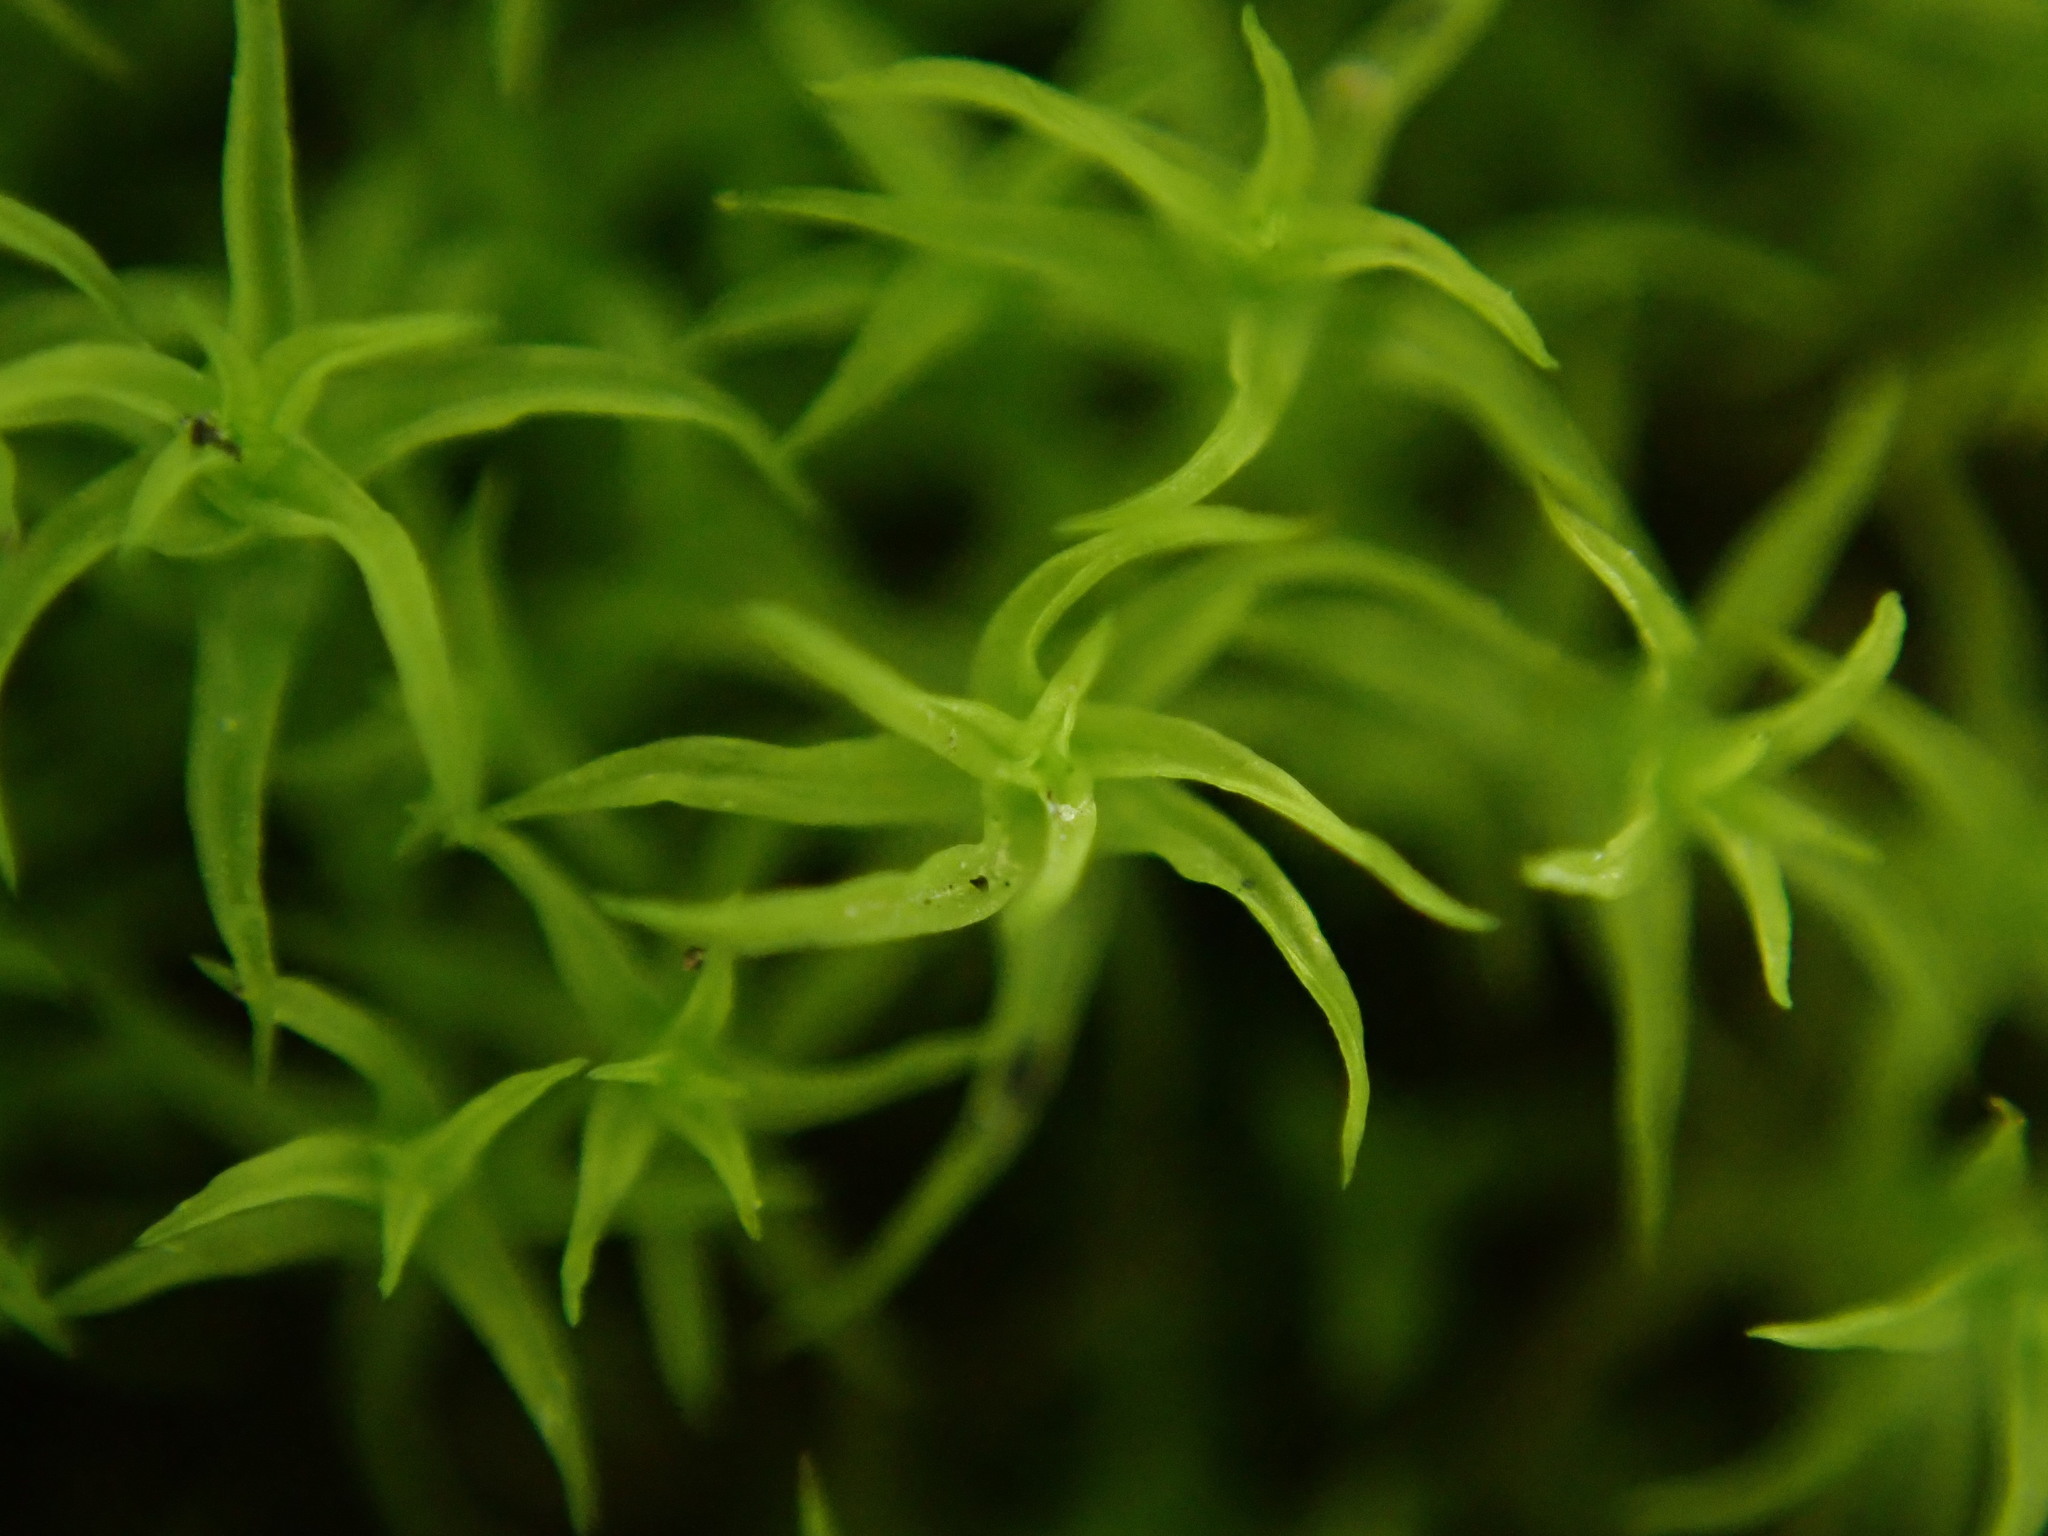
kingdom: Plantae
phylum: Bryophyta
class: Bryopsida
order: Pottiales
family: Pottiaceae
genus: Vinealobryum
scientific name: Vinealobryum insulanum
